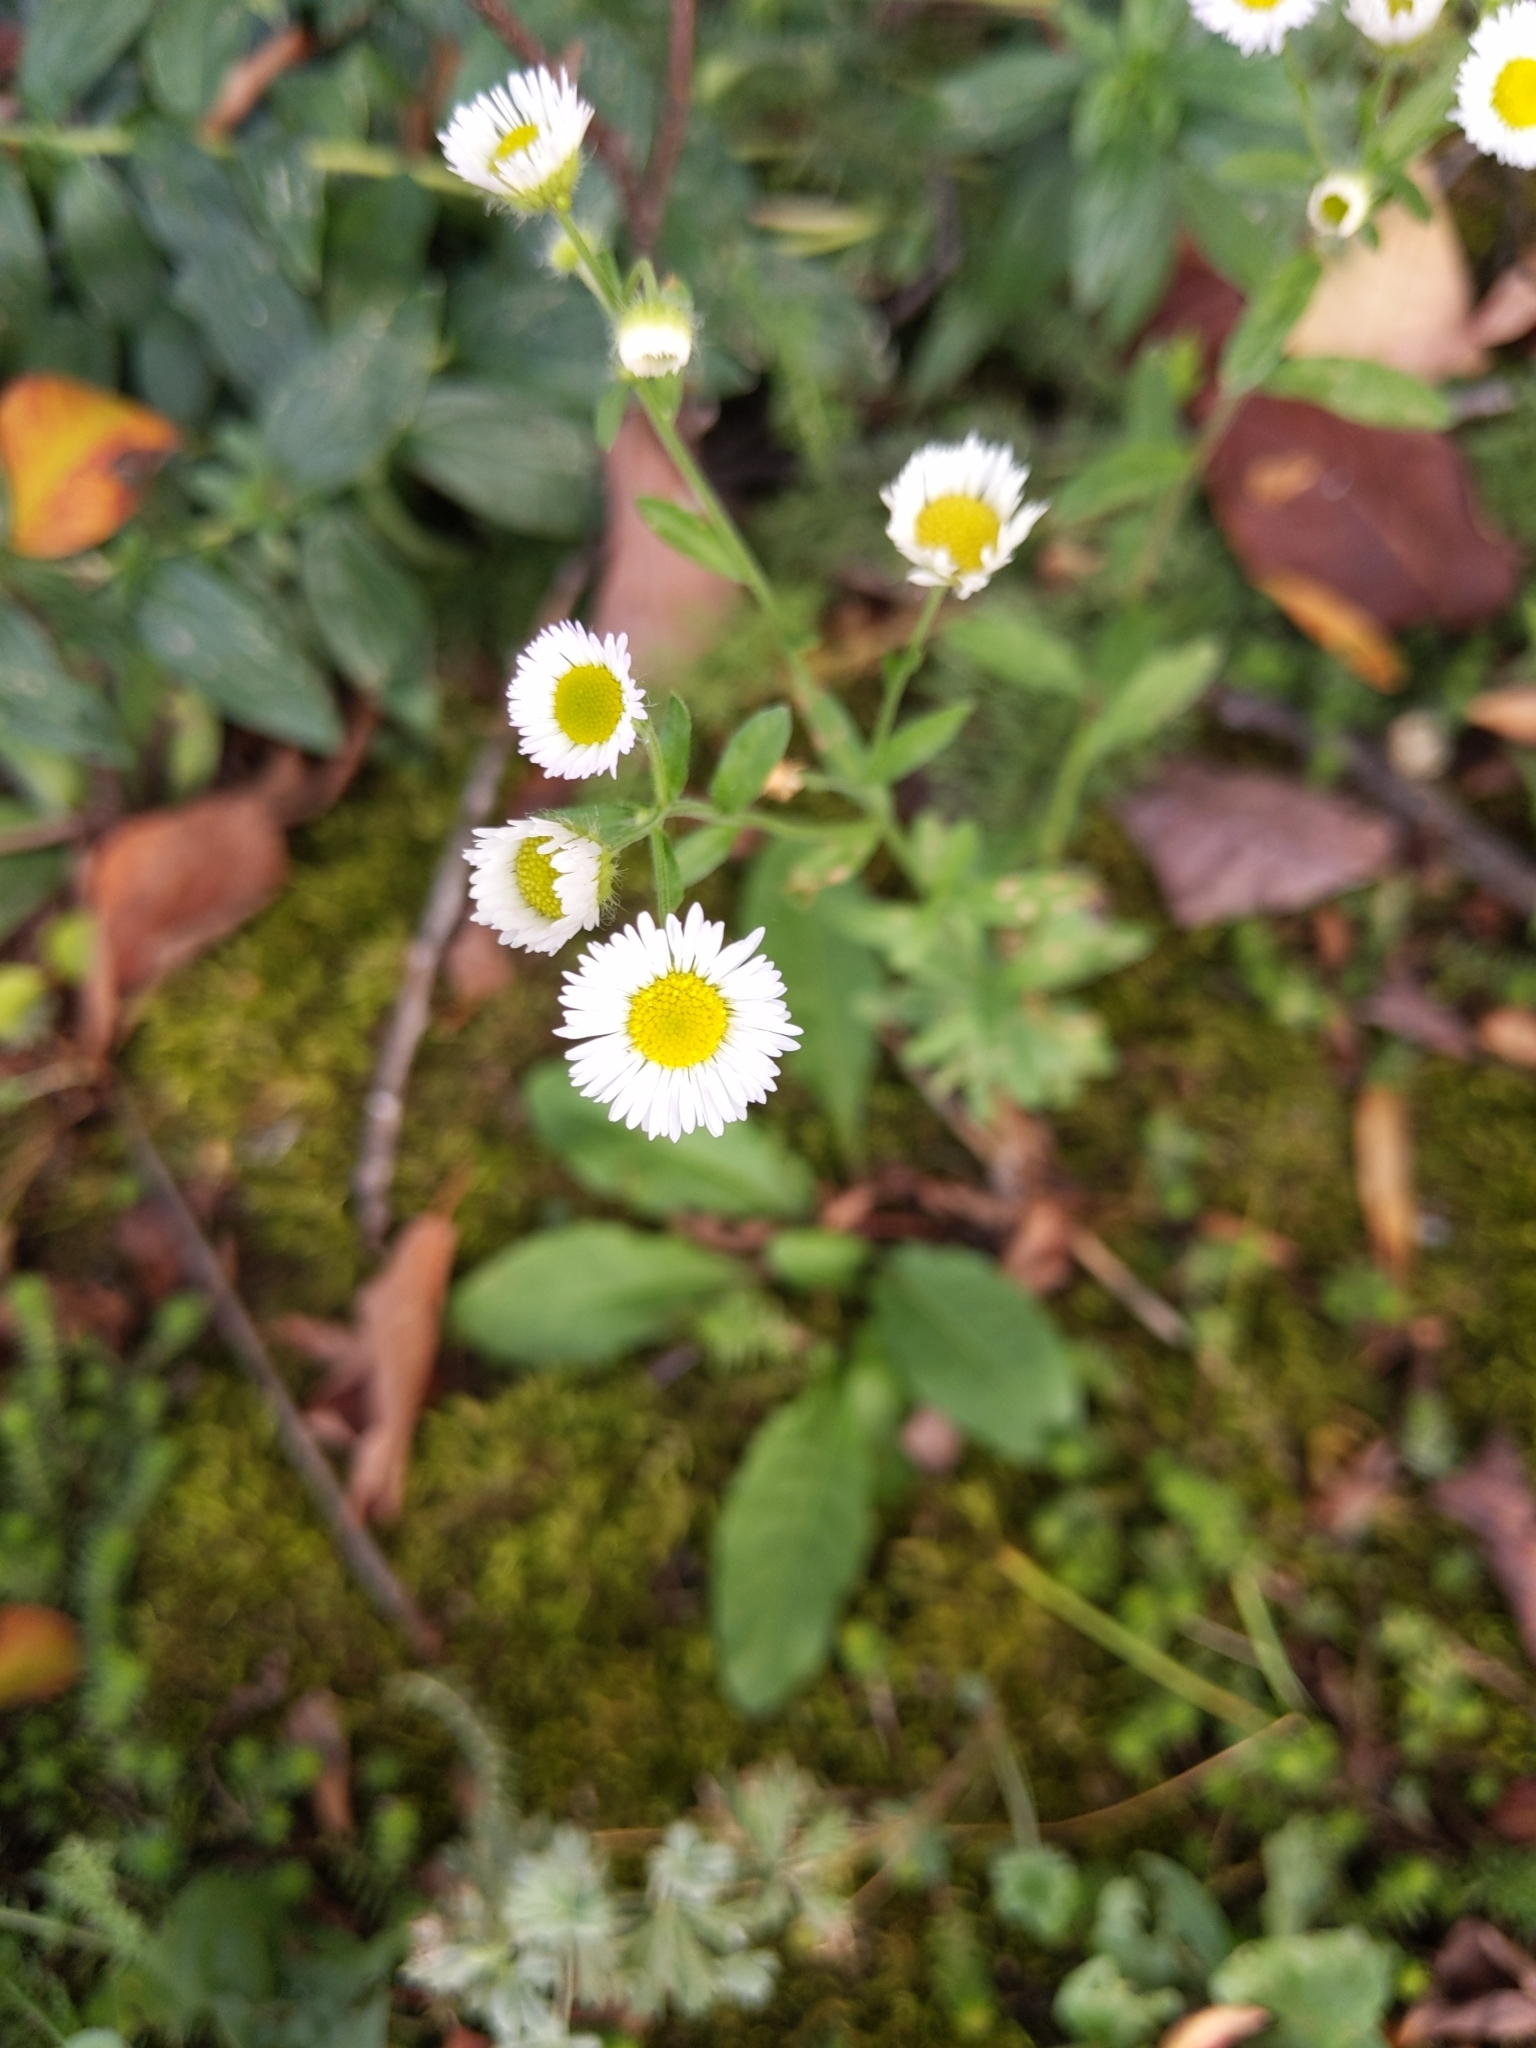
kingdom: Plantae
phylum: Tracheophyta
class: Magnoliopsida
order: Asterales
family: Asteraceae
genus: Erigeron
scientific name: Erigeron strigosus
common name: Common eastern fleabane
